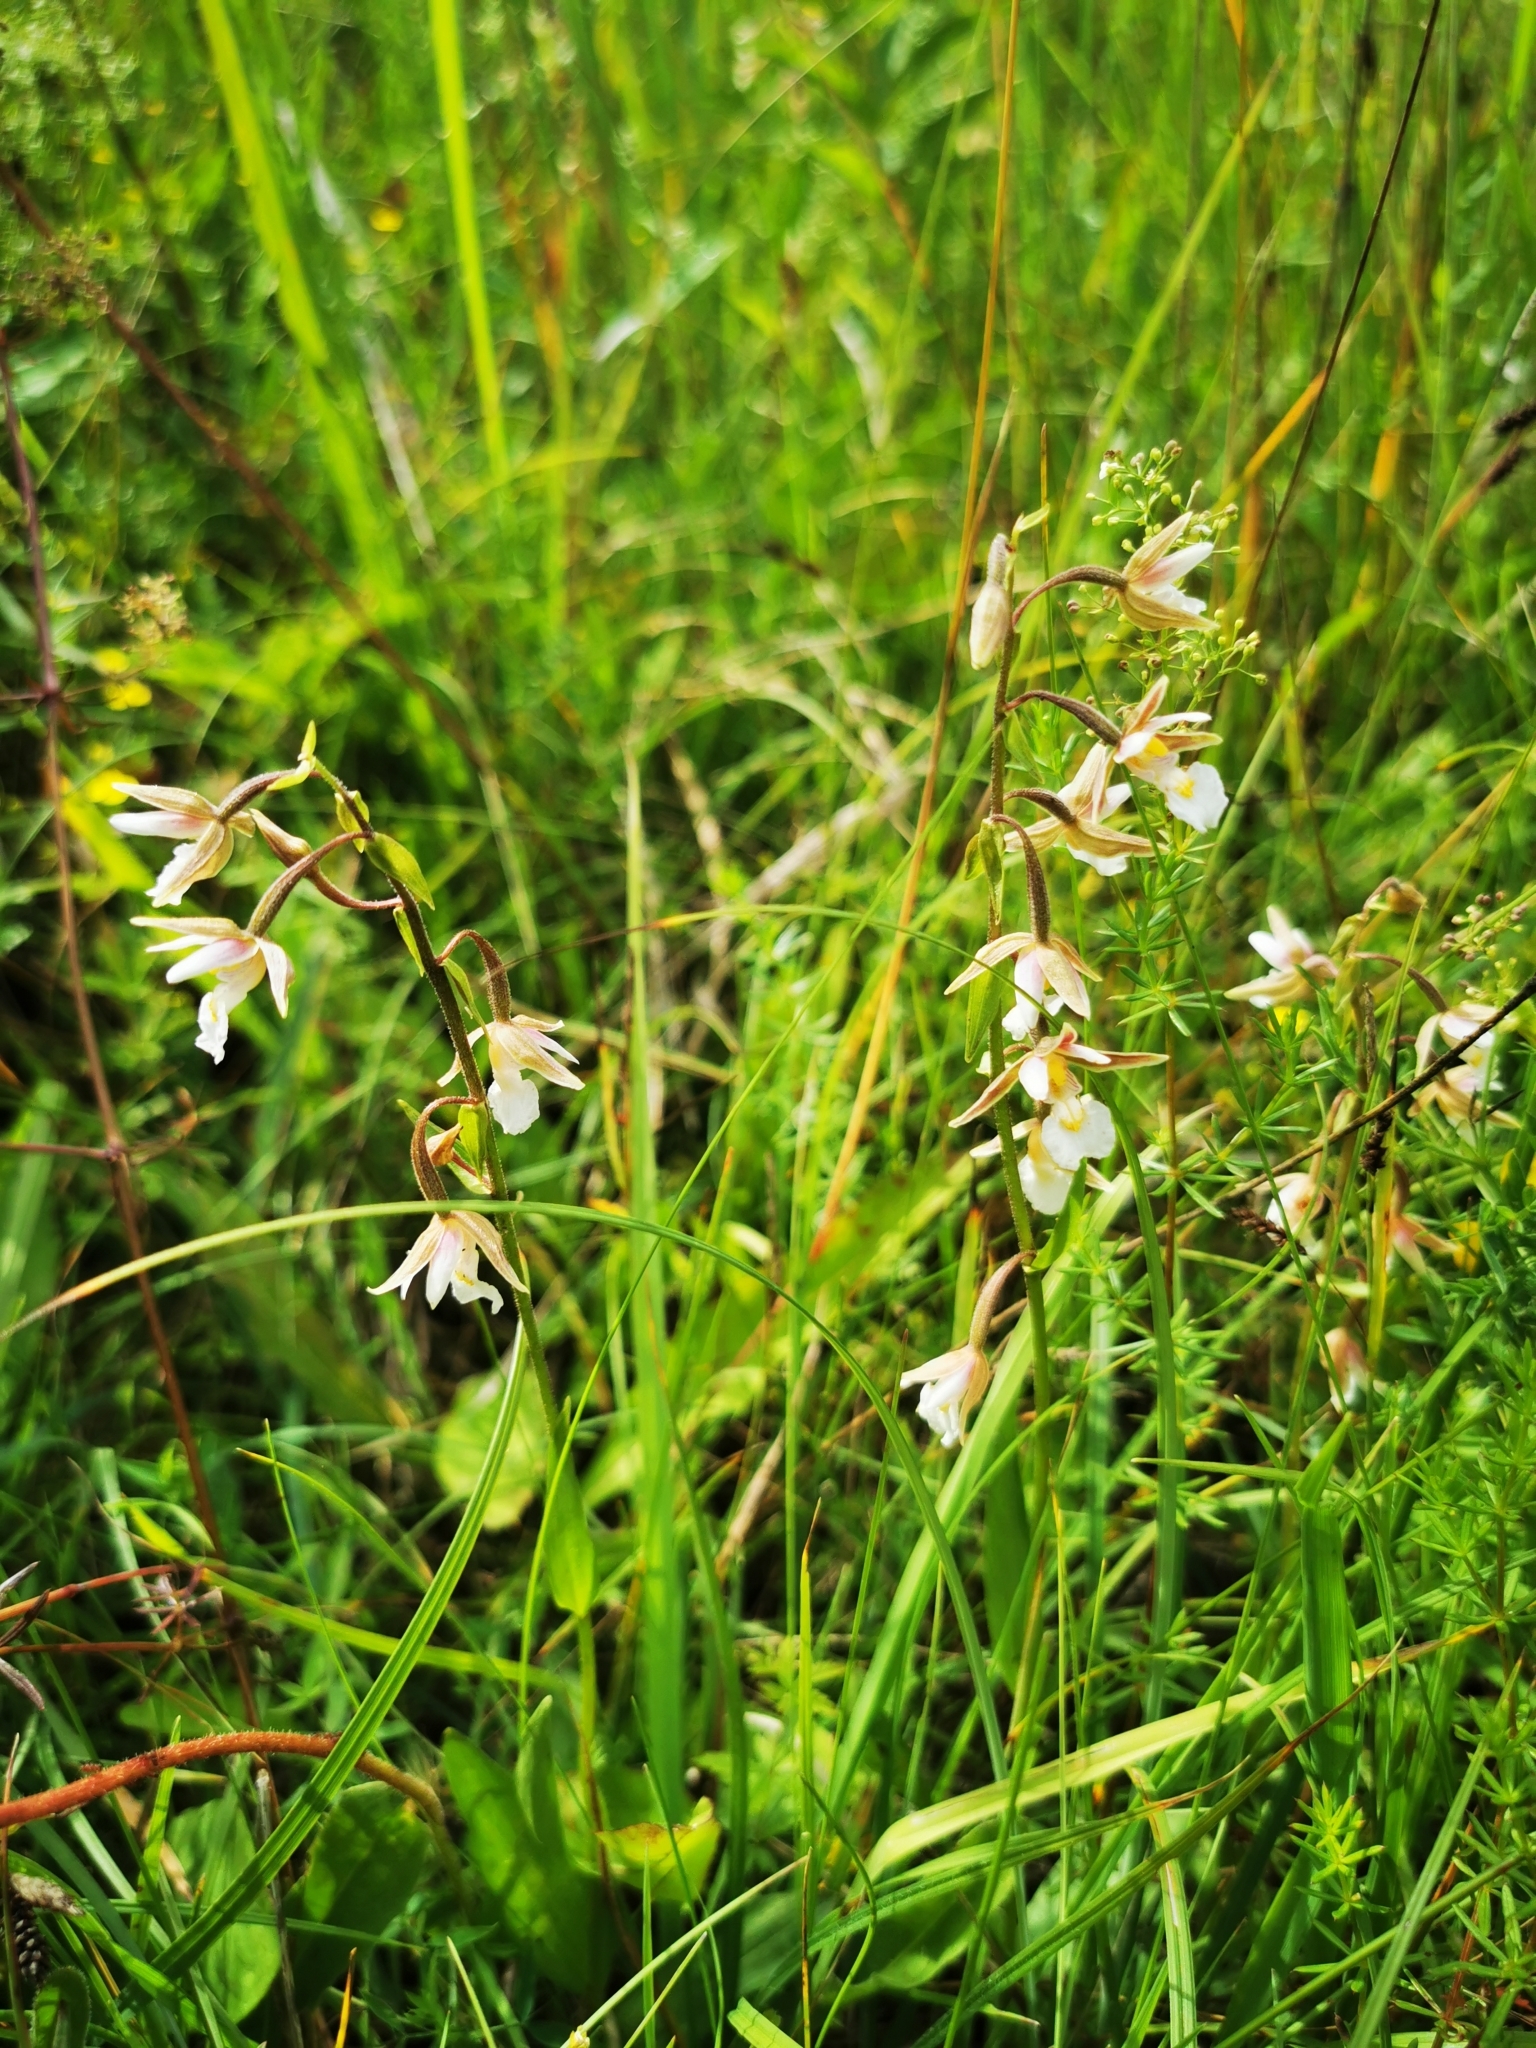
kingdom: Plantae
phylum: Tracheophyta
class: Liliopsida
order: Asparagales
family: Orchidaceae
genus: Epipactis
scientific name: Epipactis palustris
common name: Marsh helleborine
